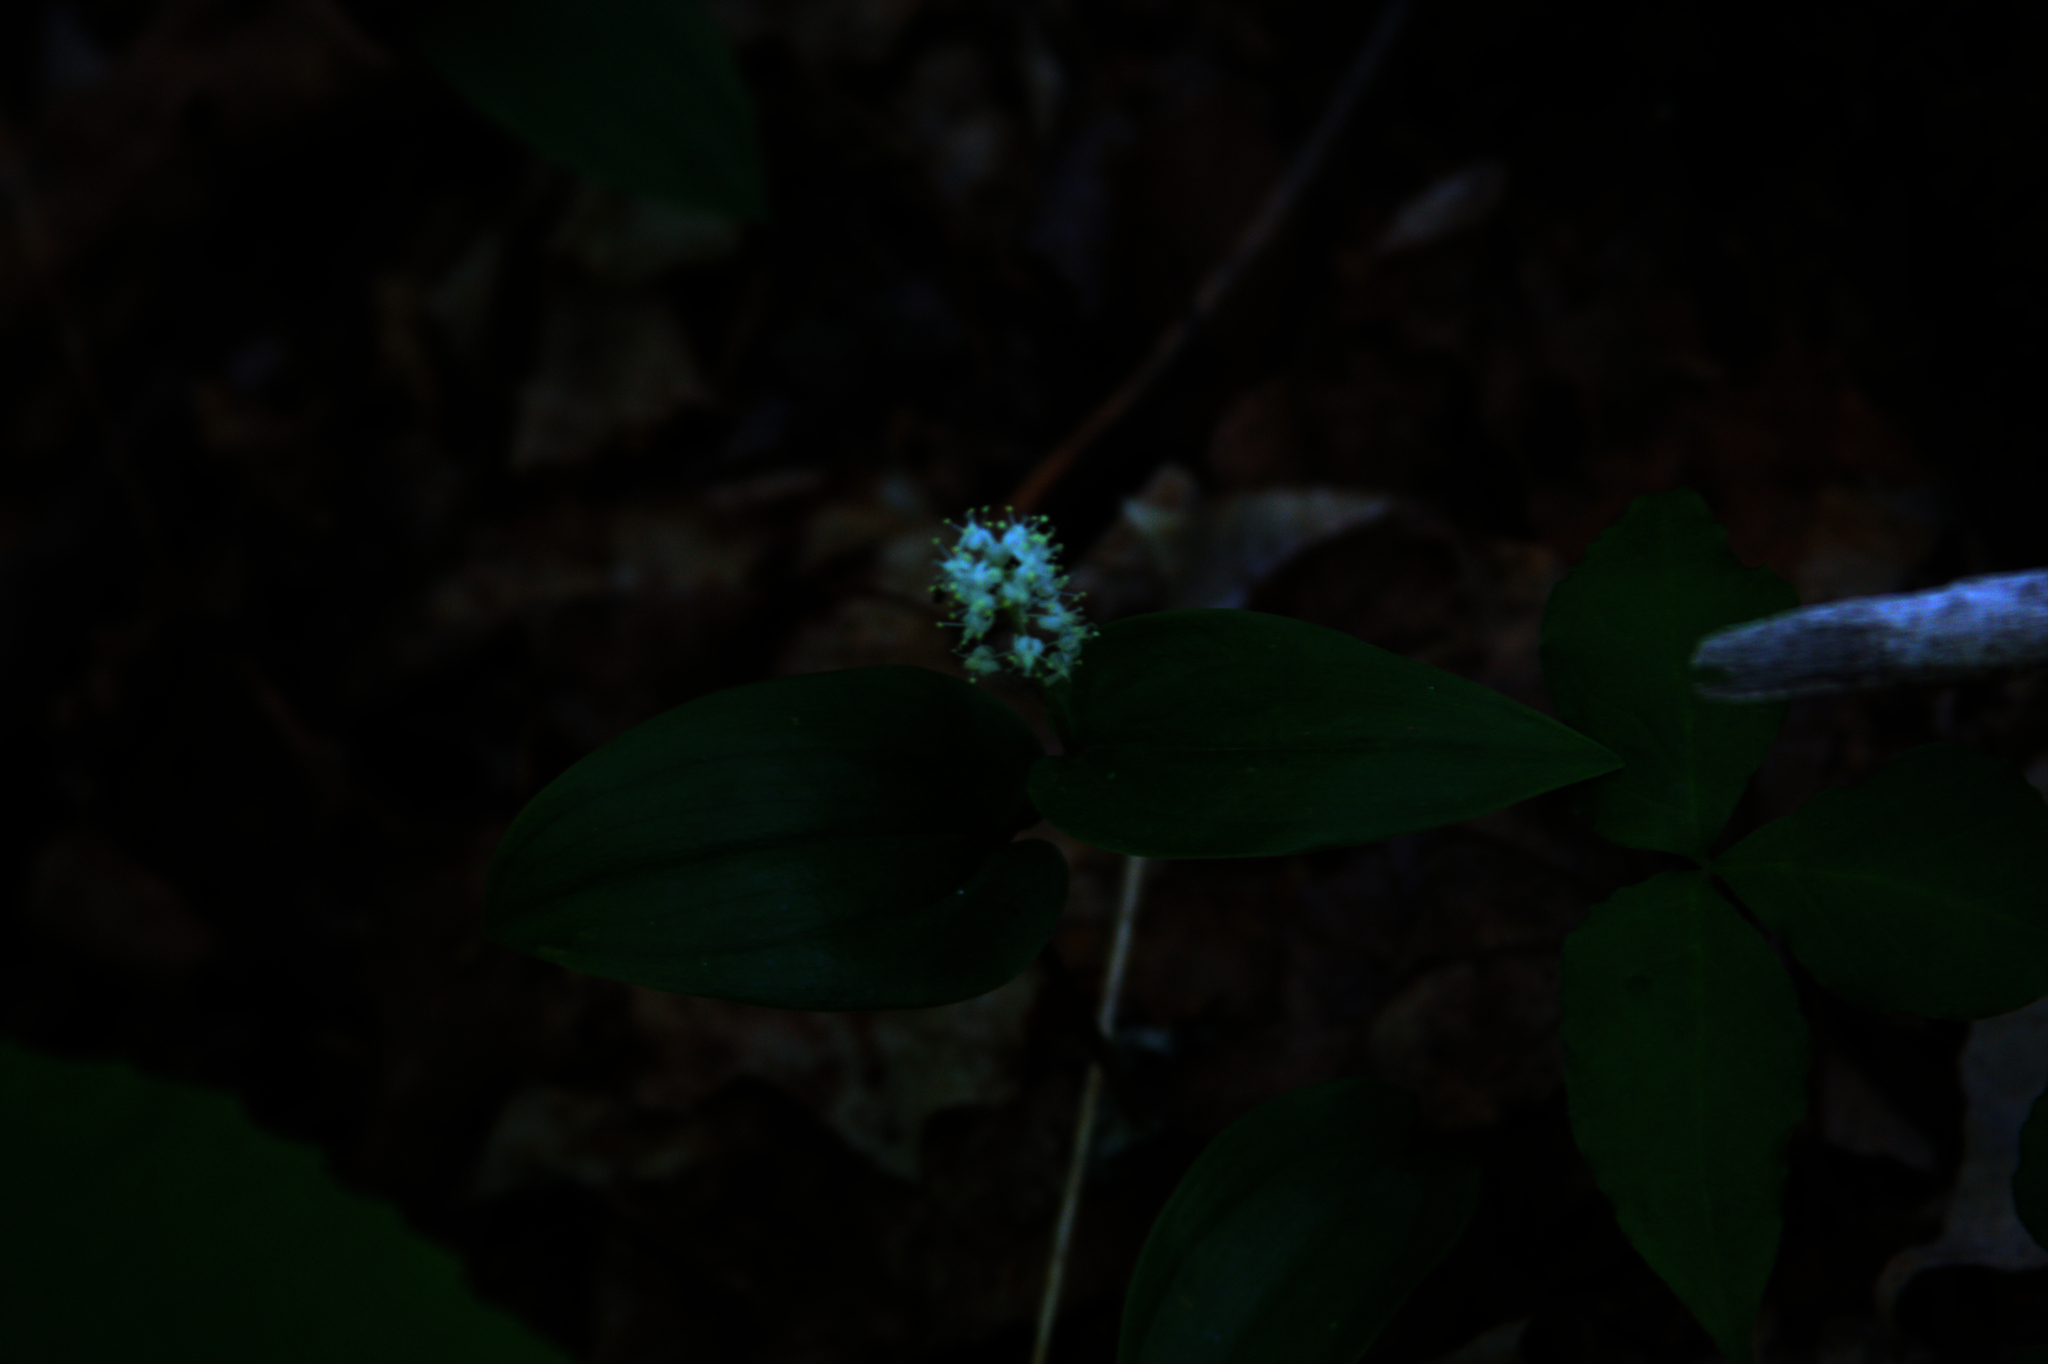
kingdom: Plantae
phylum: Tracheophyta
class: Liliopsida
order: Asparagales
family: Asparagaceae
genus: Maianthemum
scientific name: Maianthemum canadense
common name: False lily-of-the-valley
